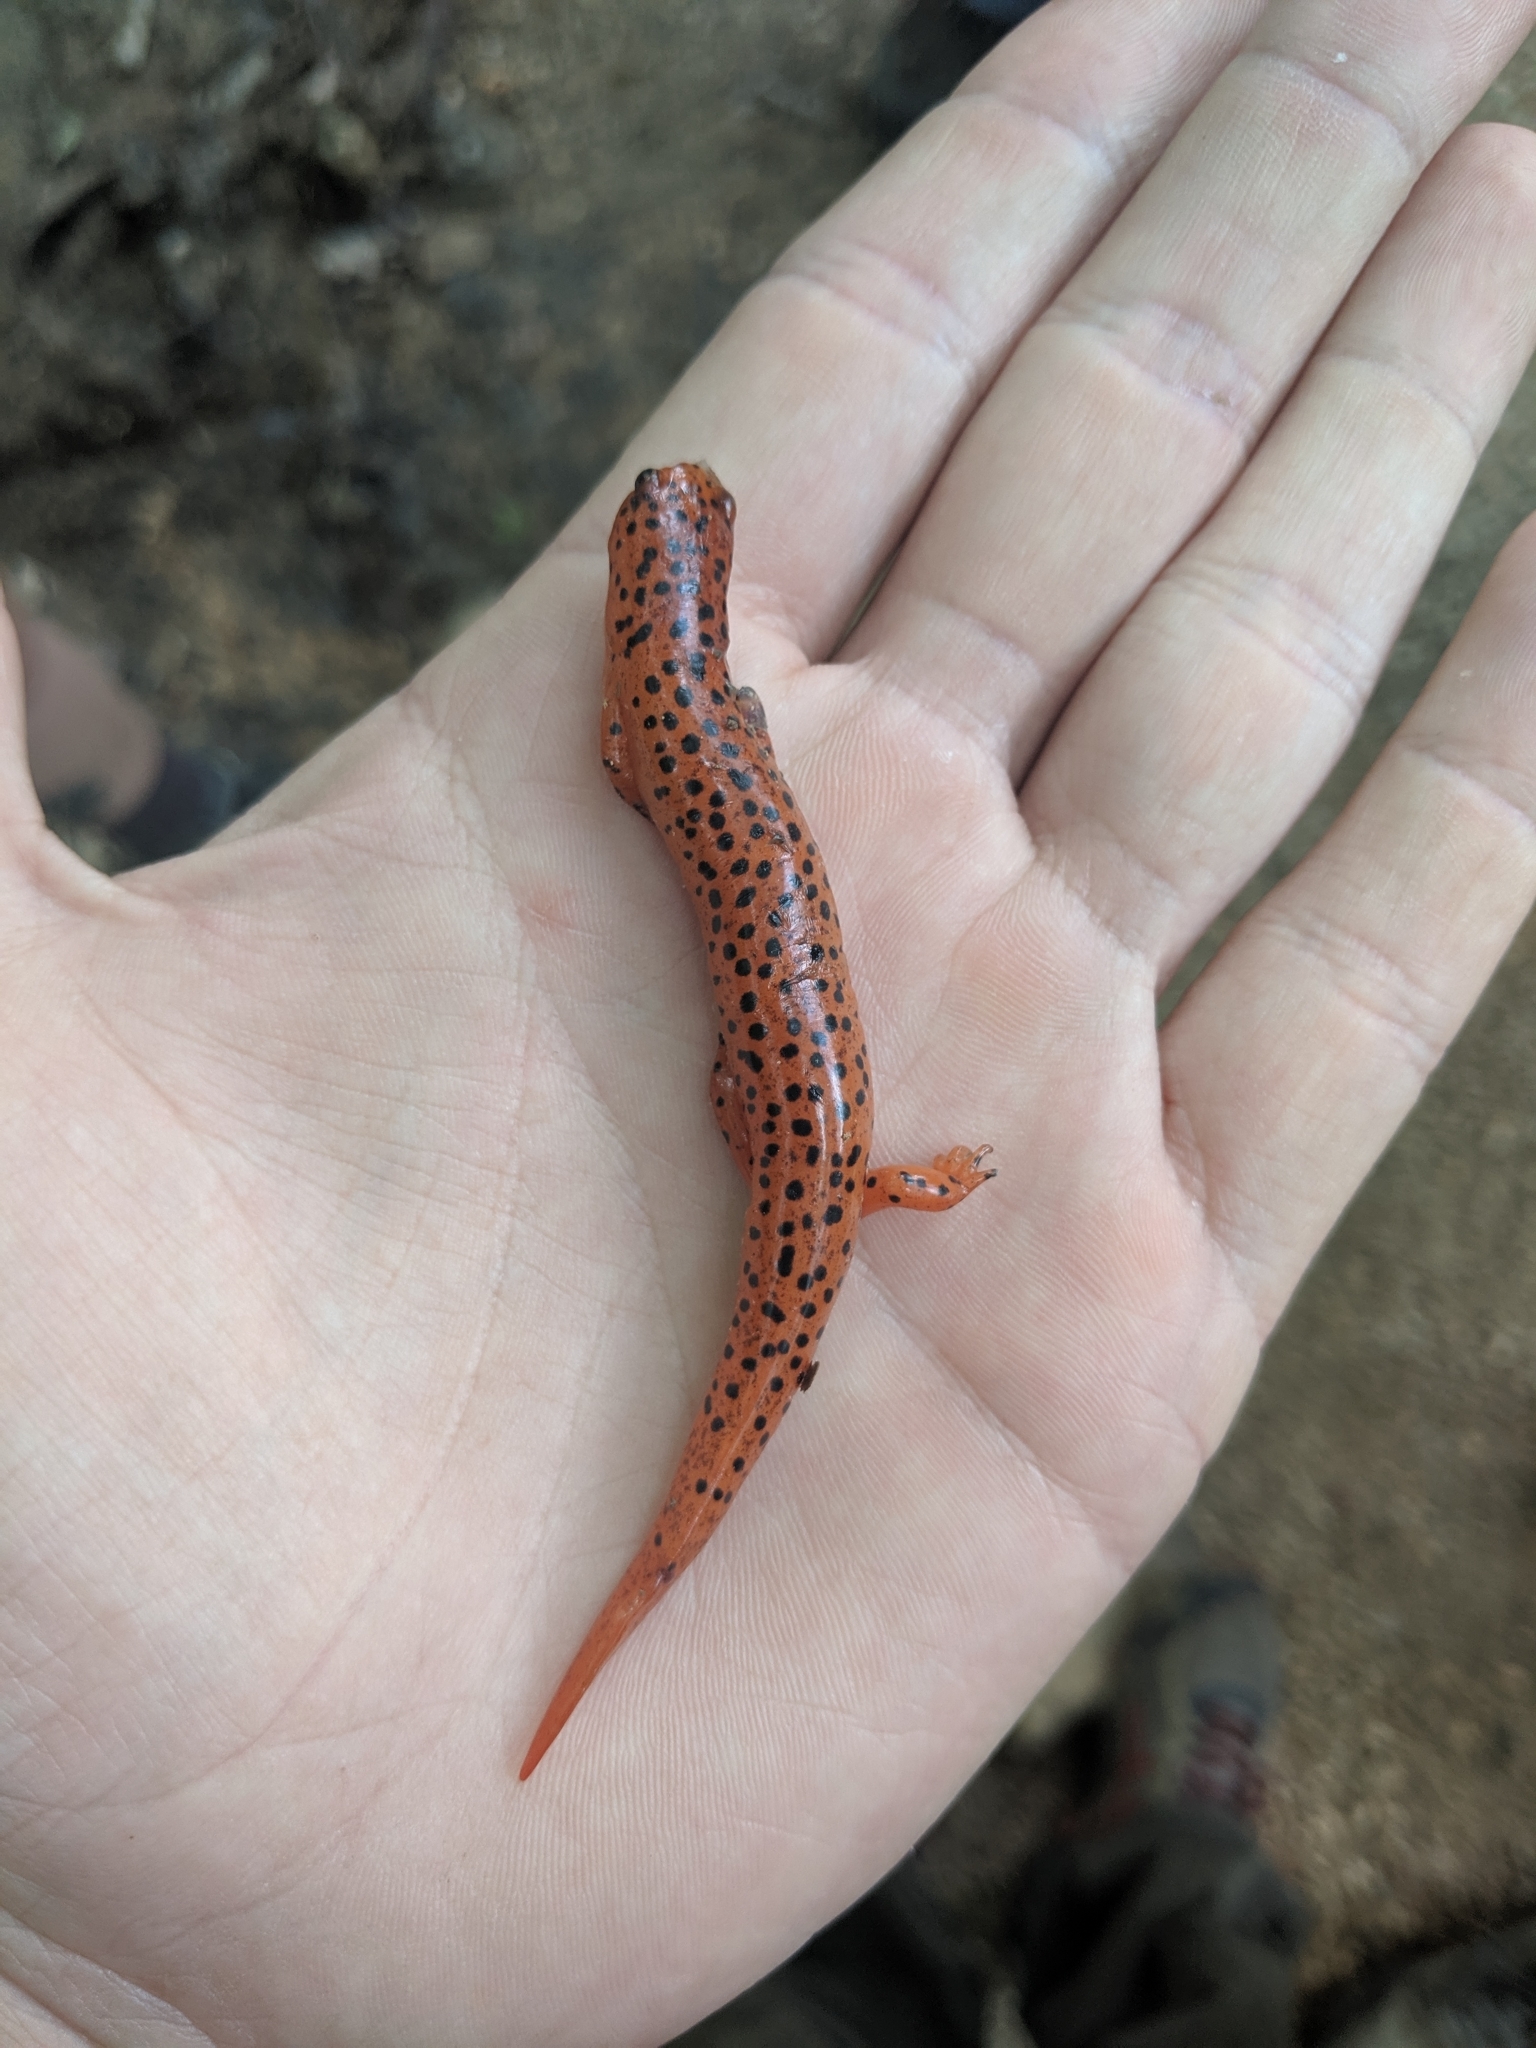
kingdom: Animalia
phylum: Chordata
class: Amphibia
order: Caudata
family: Plethodontidae
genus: Pseudotriton
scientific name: Pseudotriton ruber
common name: Red salamander
